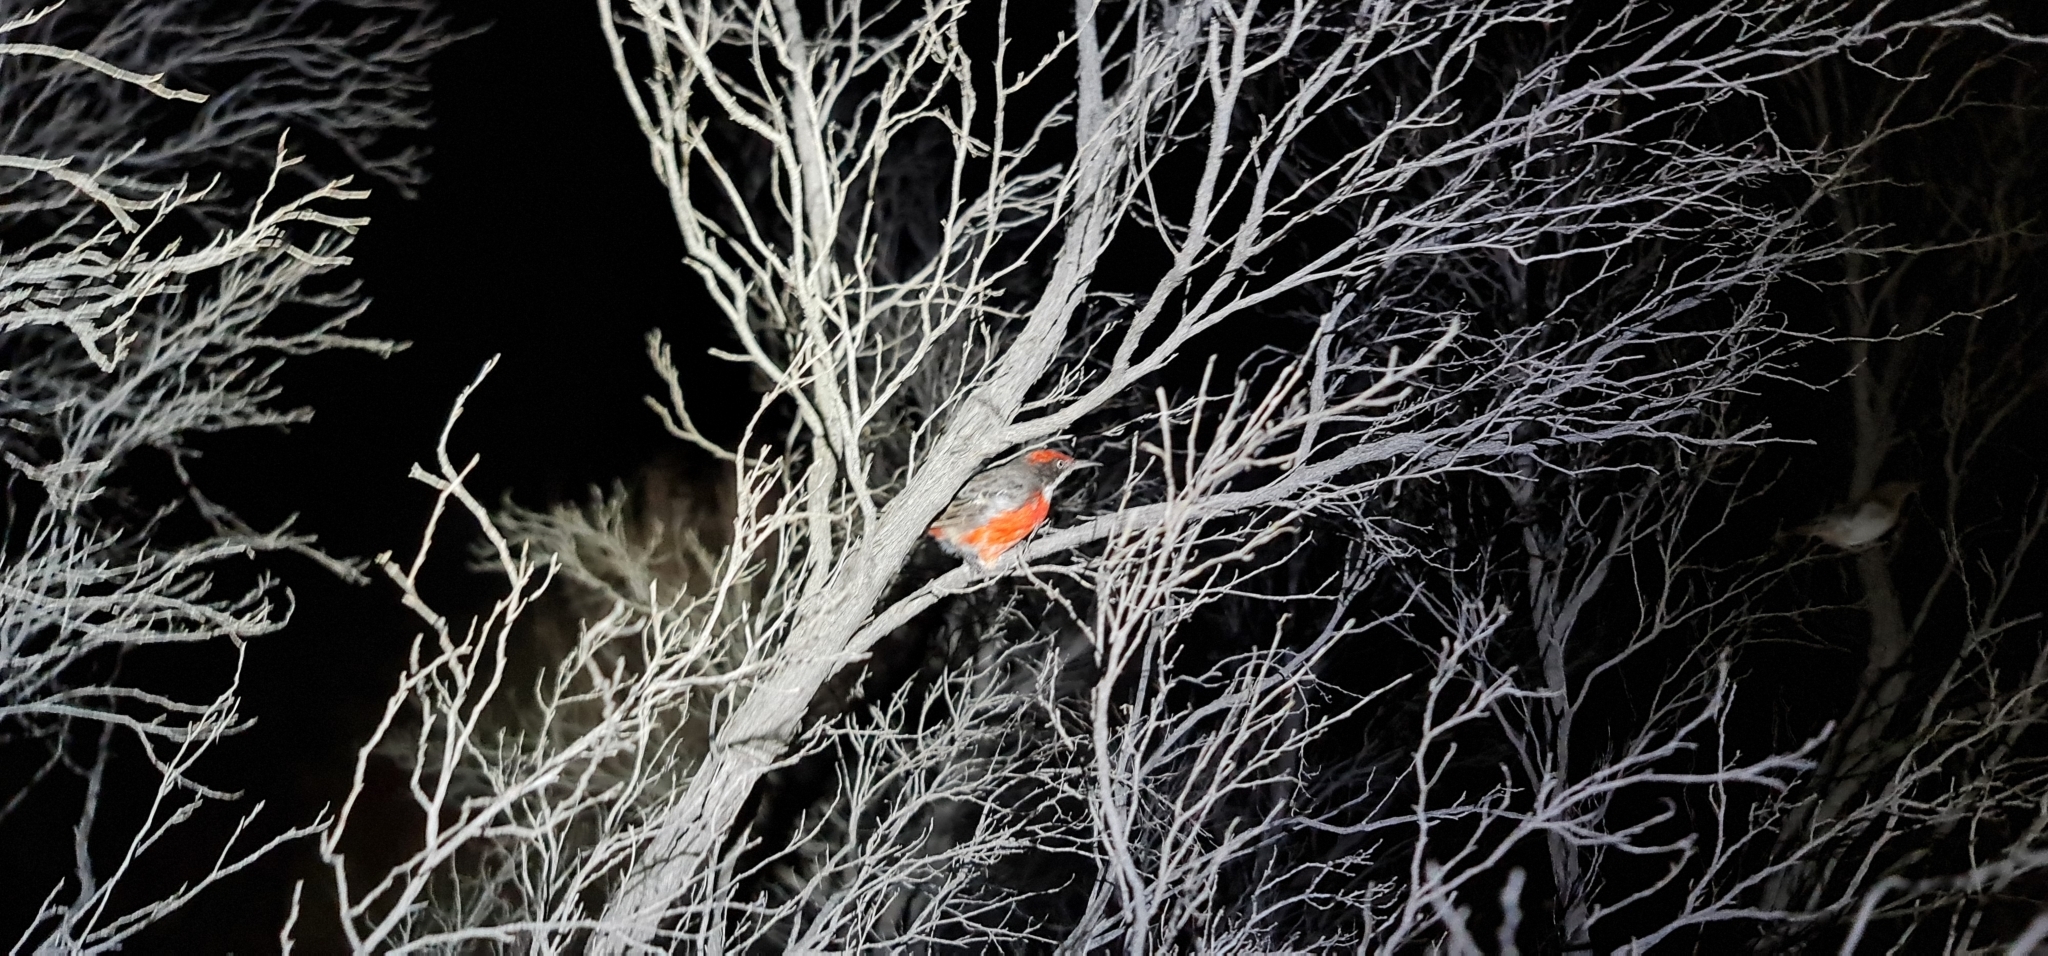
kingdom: Animalia
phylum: Chordata
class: Aves
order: Passeriformes
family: Meliphagidae
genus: Epthianura
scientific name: Epthianura tricolor
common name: Crimson chat
